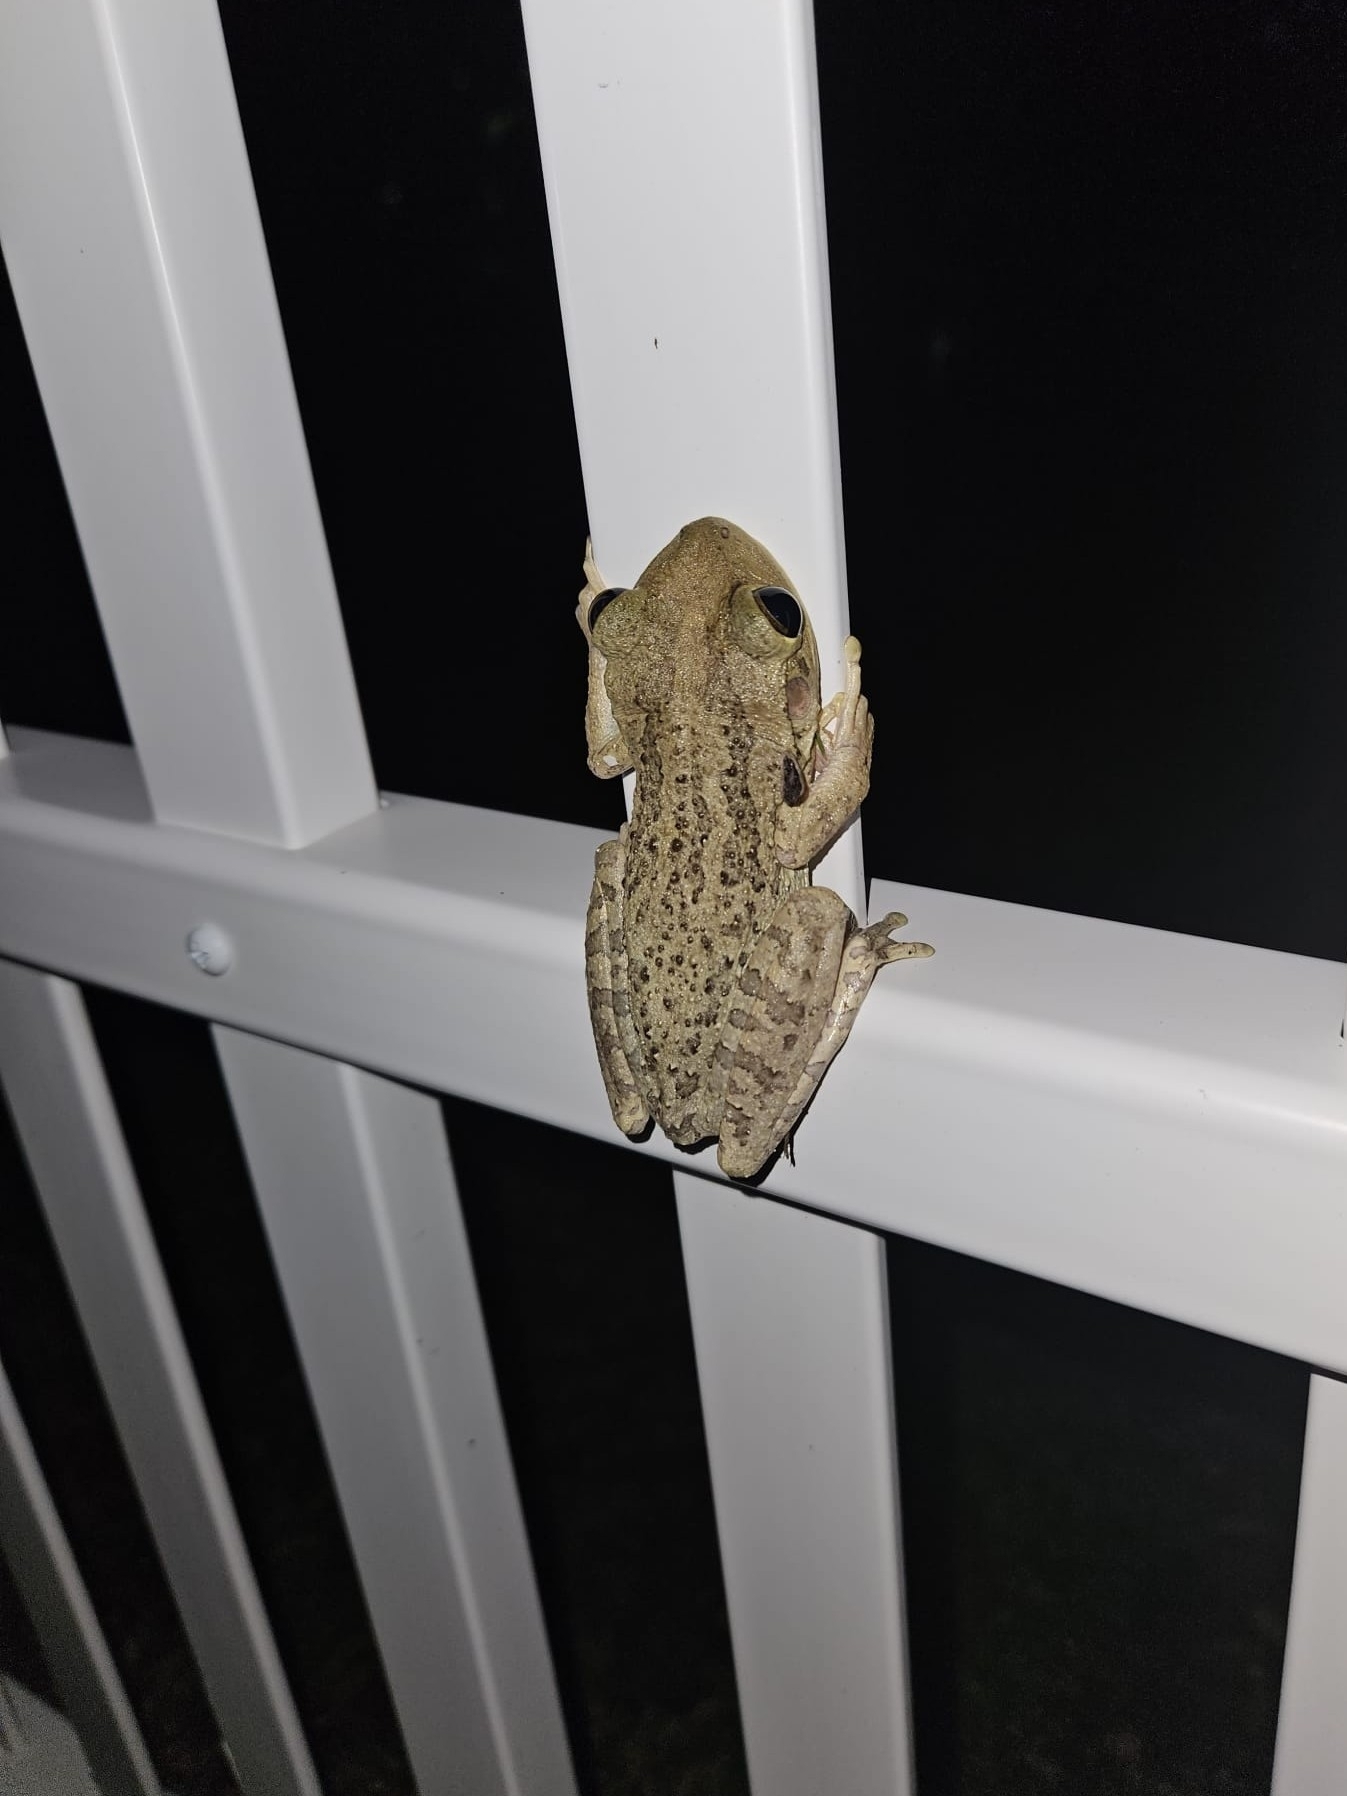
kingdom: Animalia
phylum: Chordata
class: Amphibia
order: Anura
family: Hylidae
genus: Osteopilus
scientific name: Osteopilus septentrionalis
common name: Cuban treefrog
